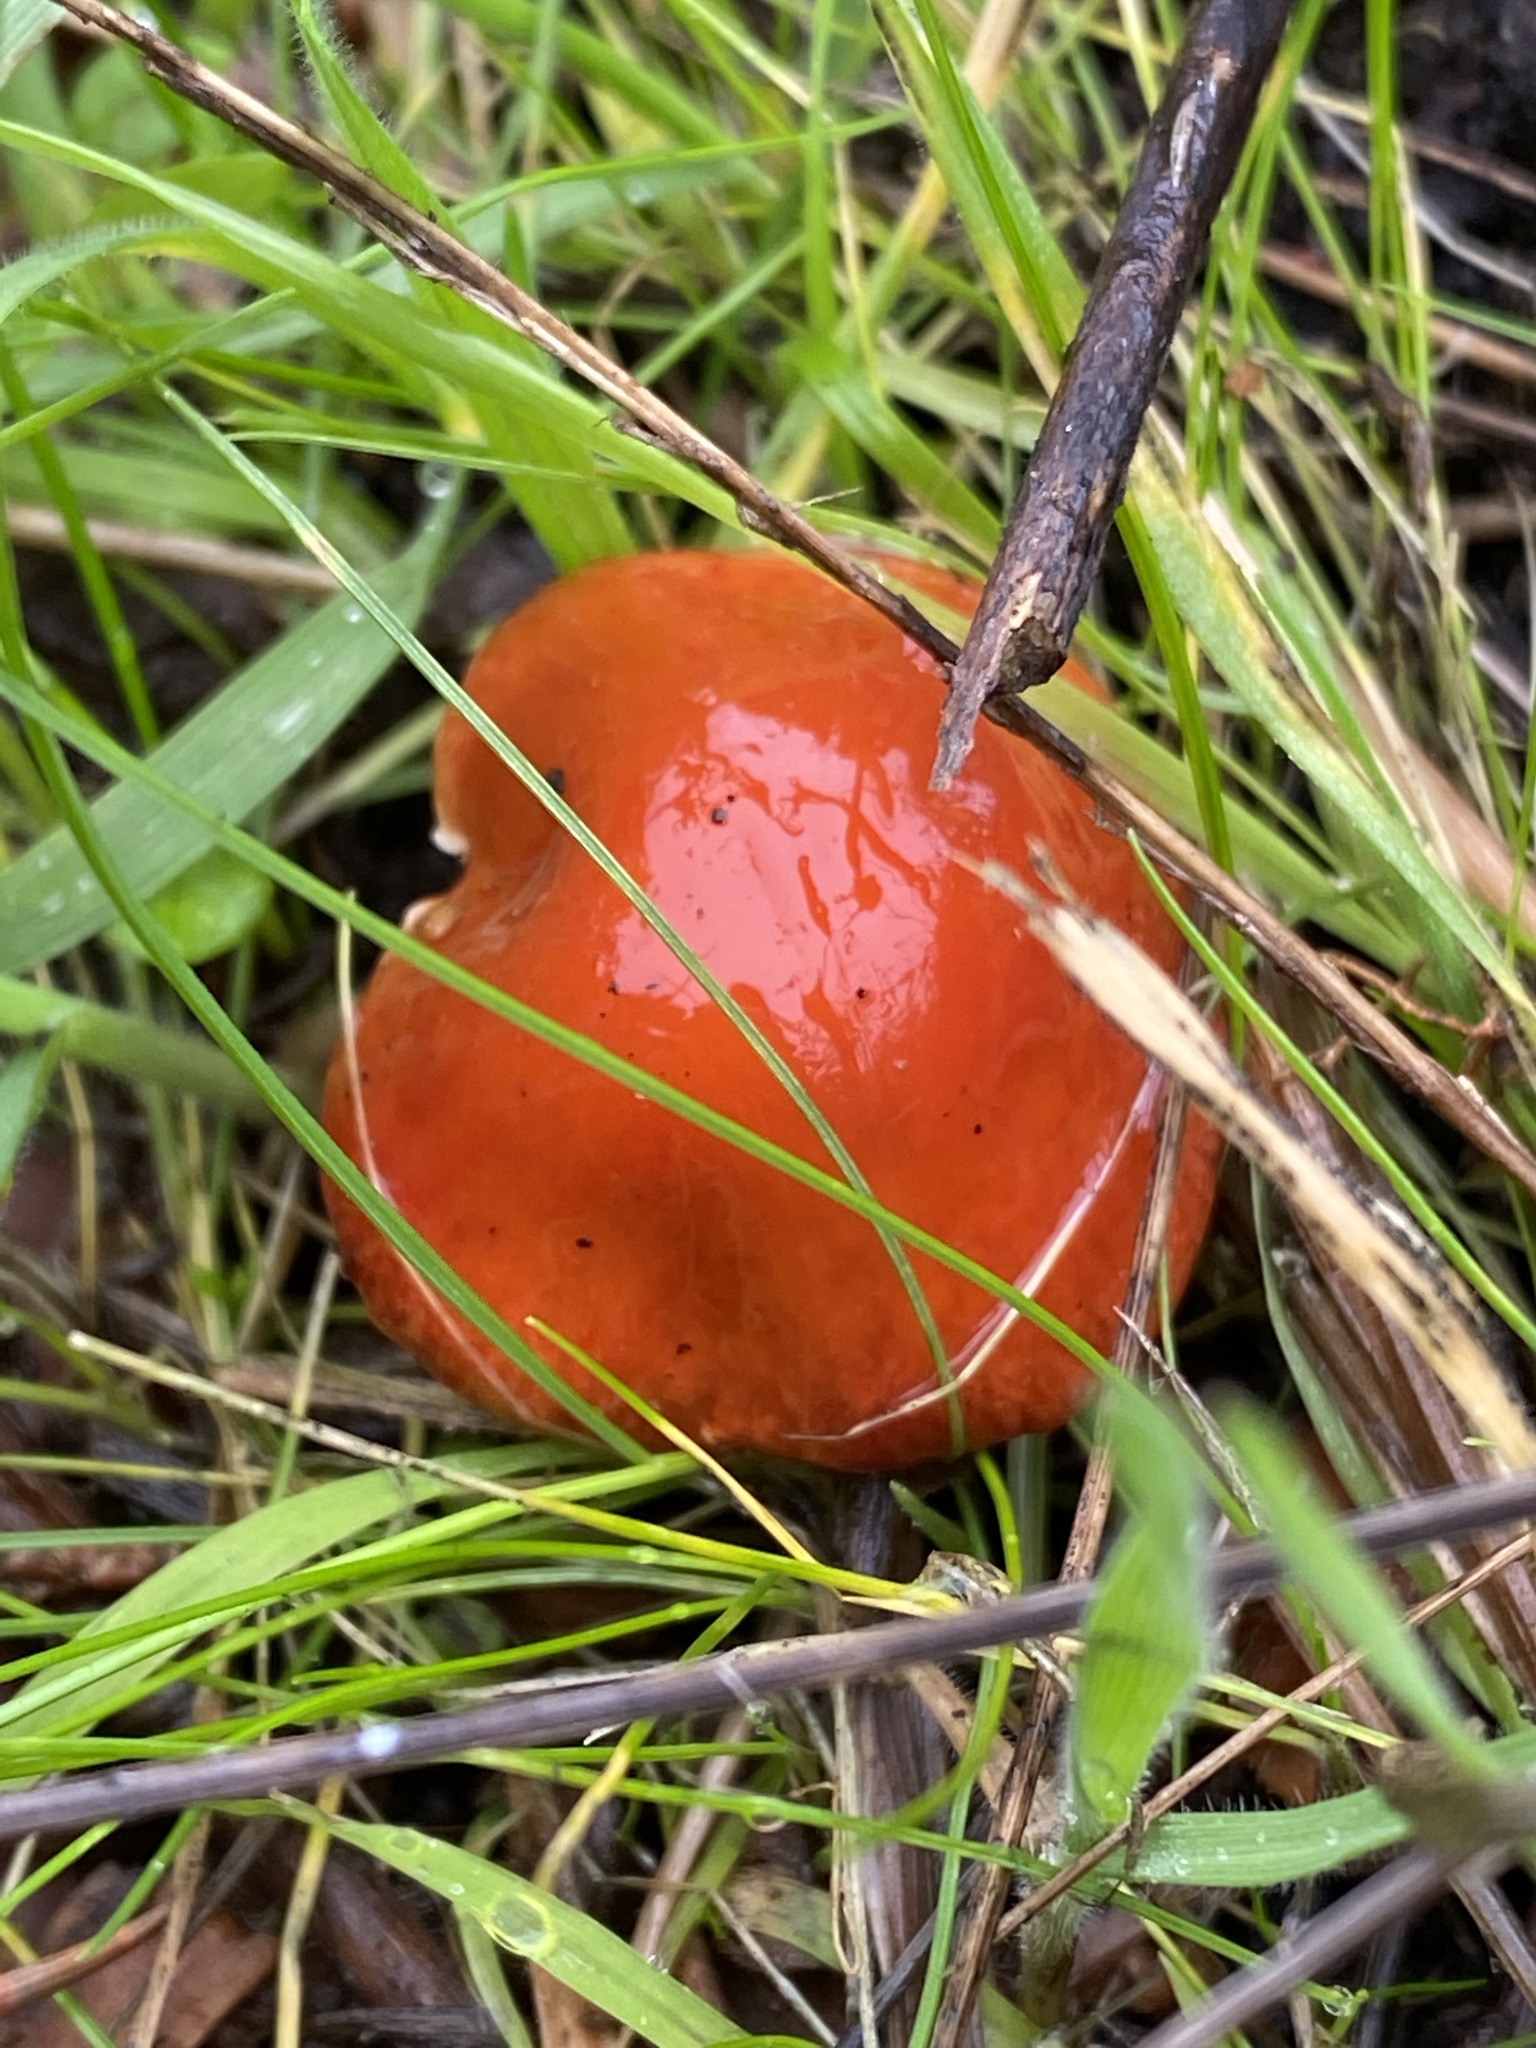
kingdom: Fungi
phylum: Basidiomycota
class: Agaricomycetes
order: Agaricales
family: Strophariaceae
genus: Leratiomyces
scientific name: Leratiomyces ceres
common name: Redlead roundhead
